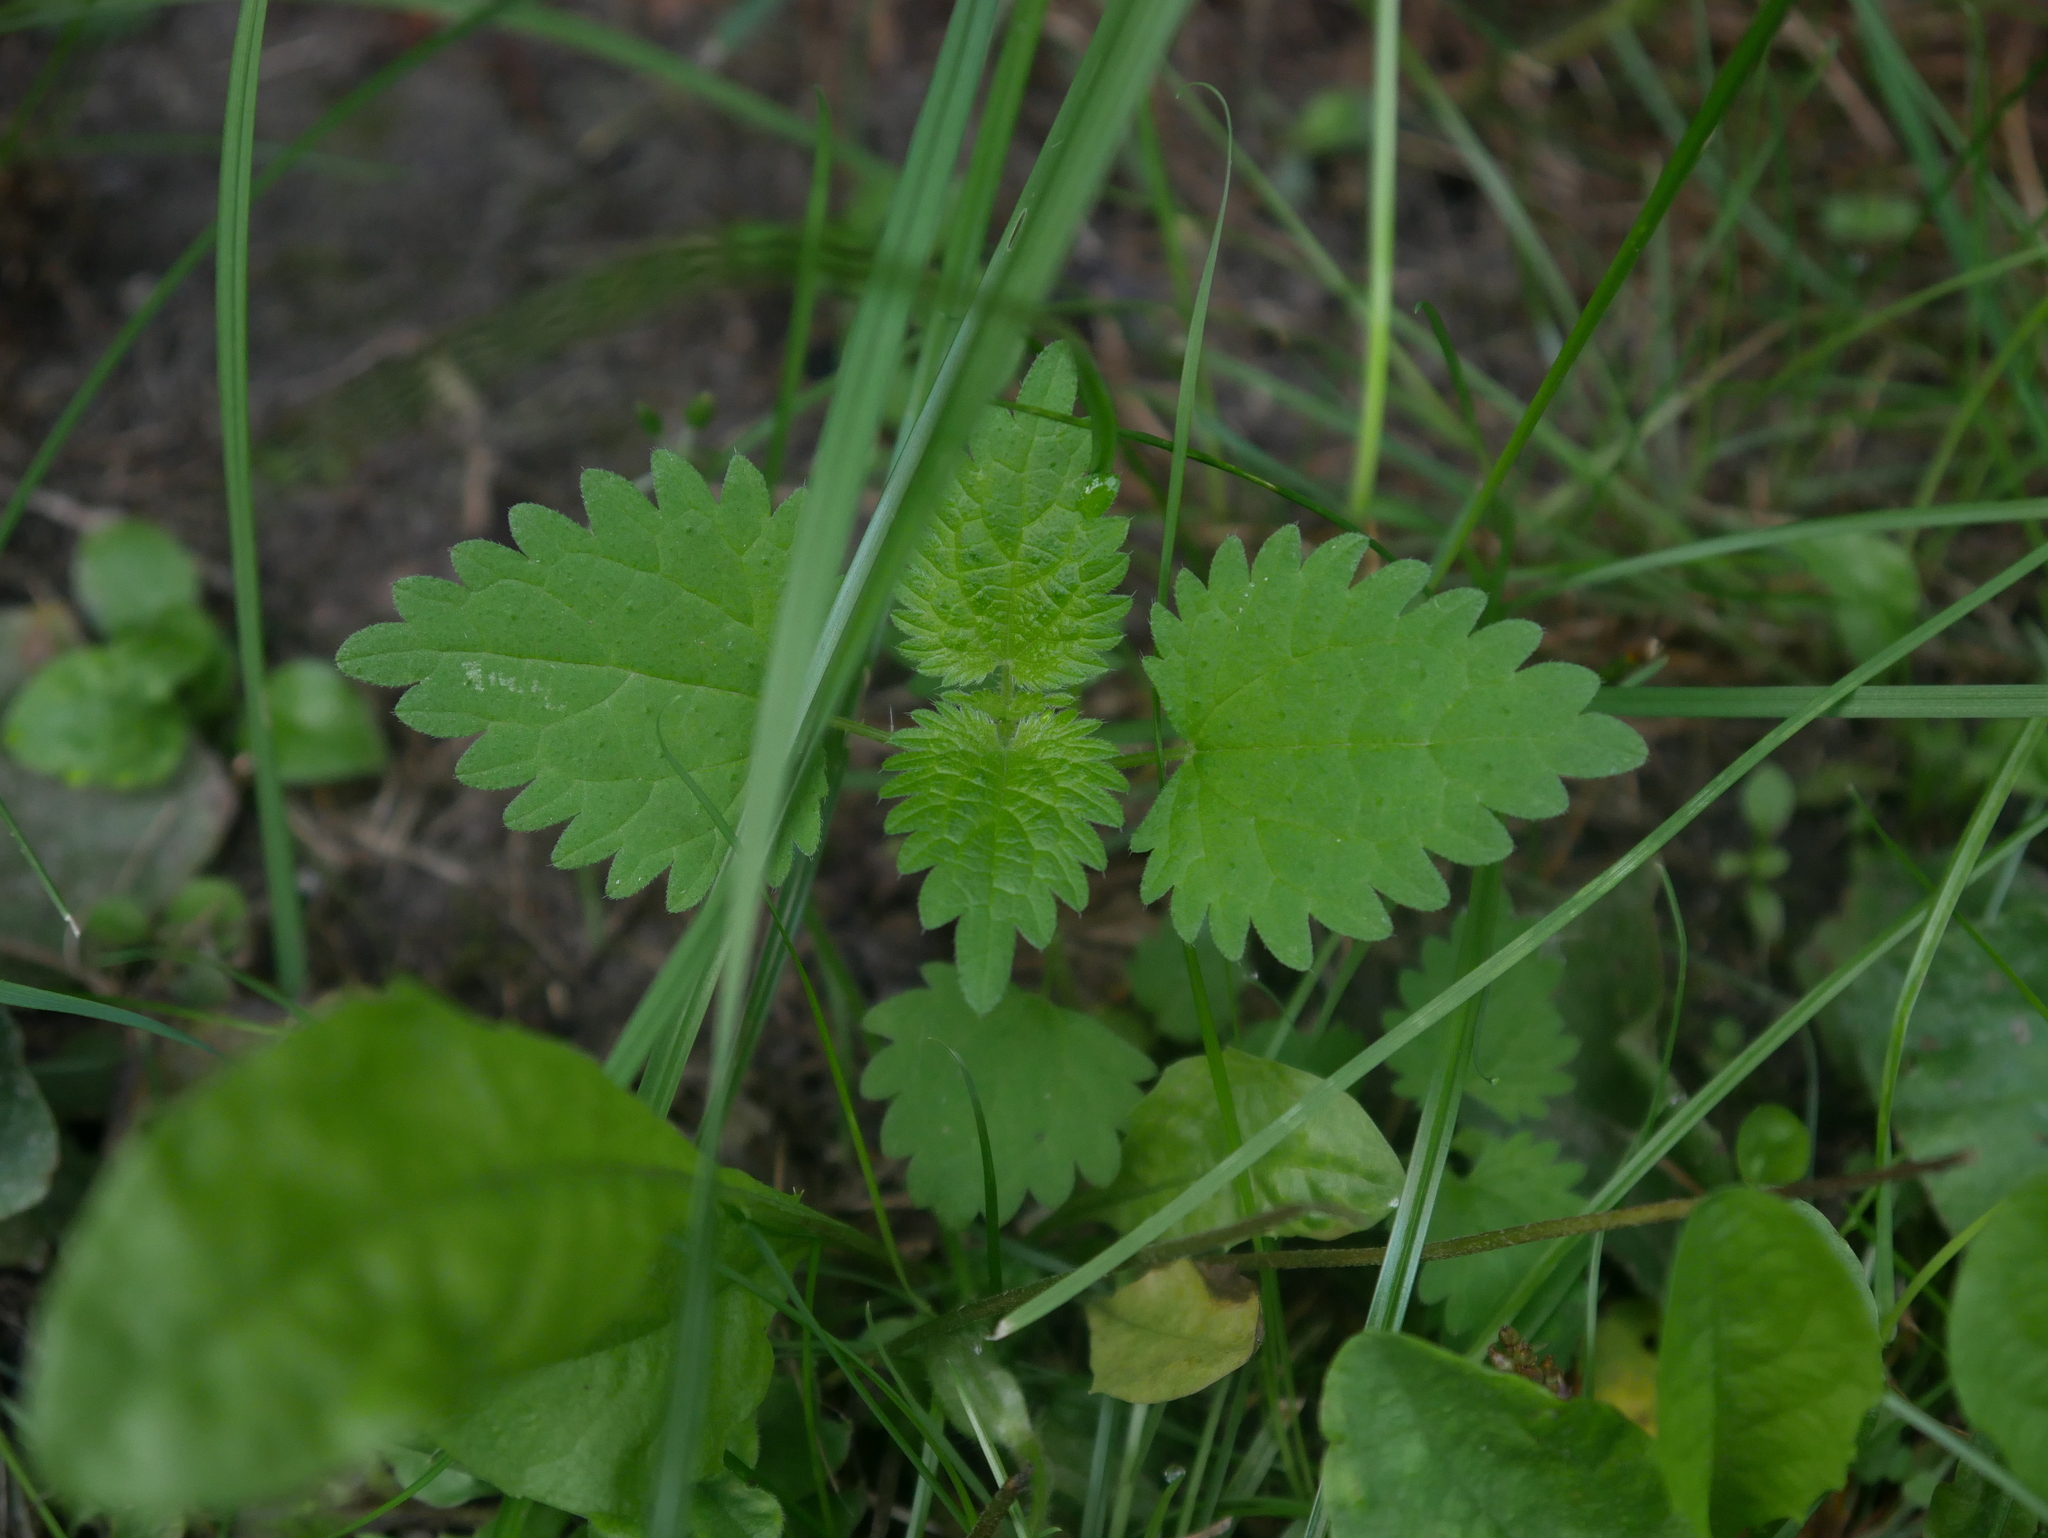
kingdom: Plantae
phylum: Tracheophyta
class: Magnoliopsida
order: Rosales
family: Urticaceae
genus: Urtica
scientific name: Urtica dioica
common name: Common nettle
